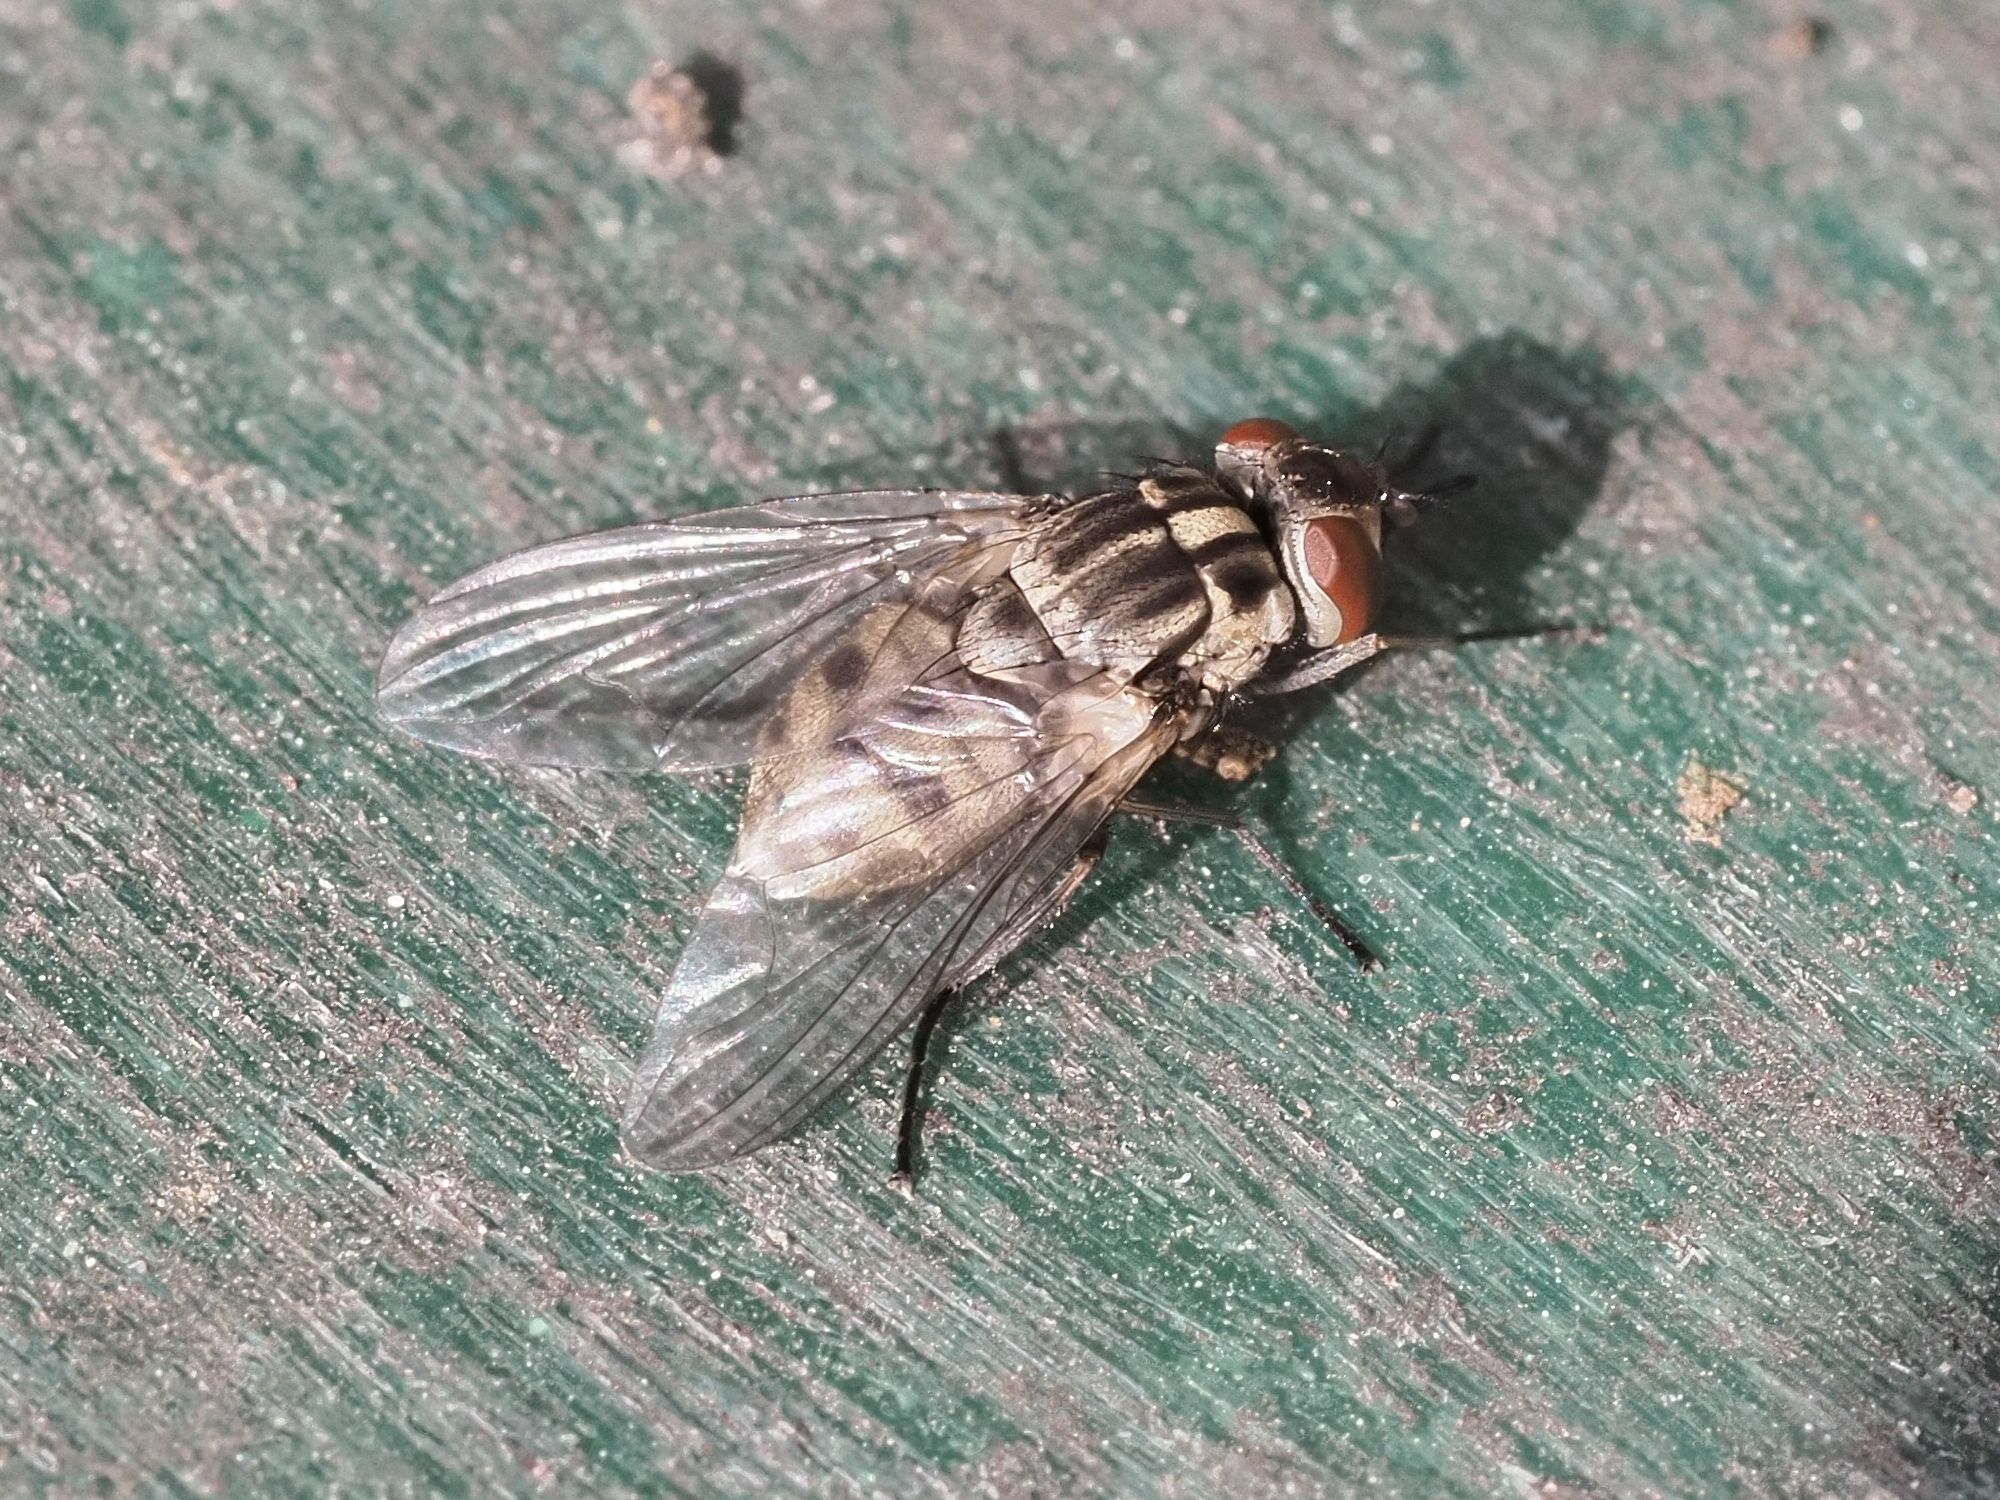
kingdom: Animalia
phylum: Arthropoda
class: Insecta
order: Diptera
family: Muscidae
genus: Stomoxys
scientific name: Stomoxys calcitrans
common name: Stable fly
